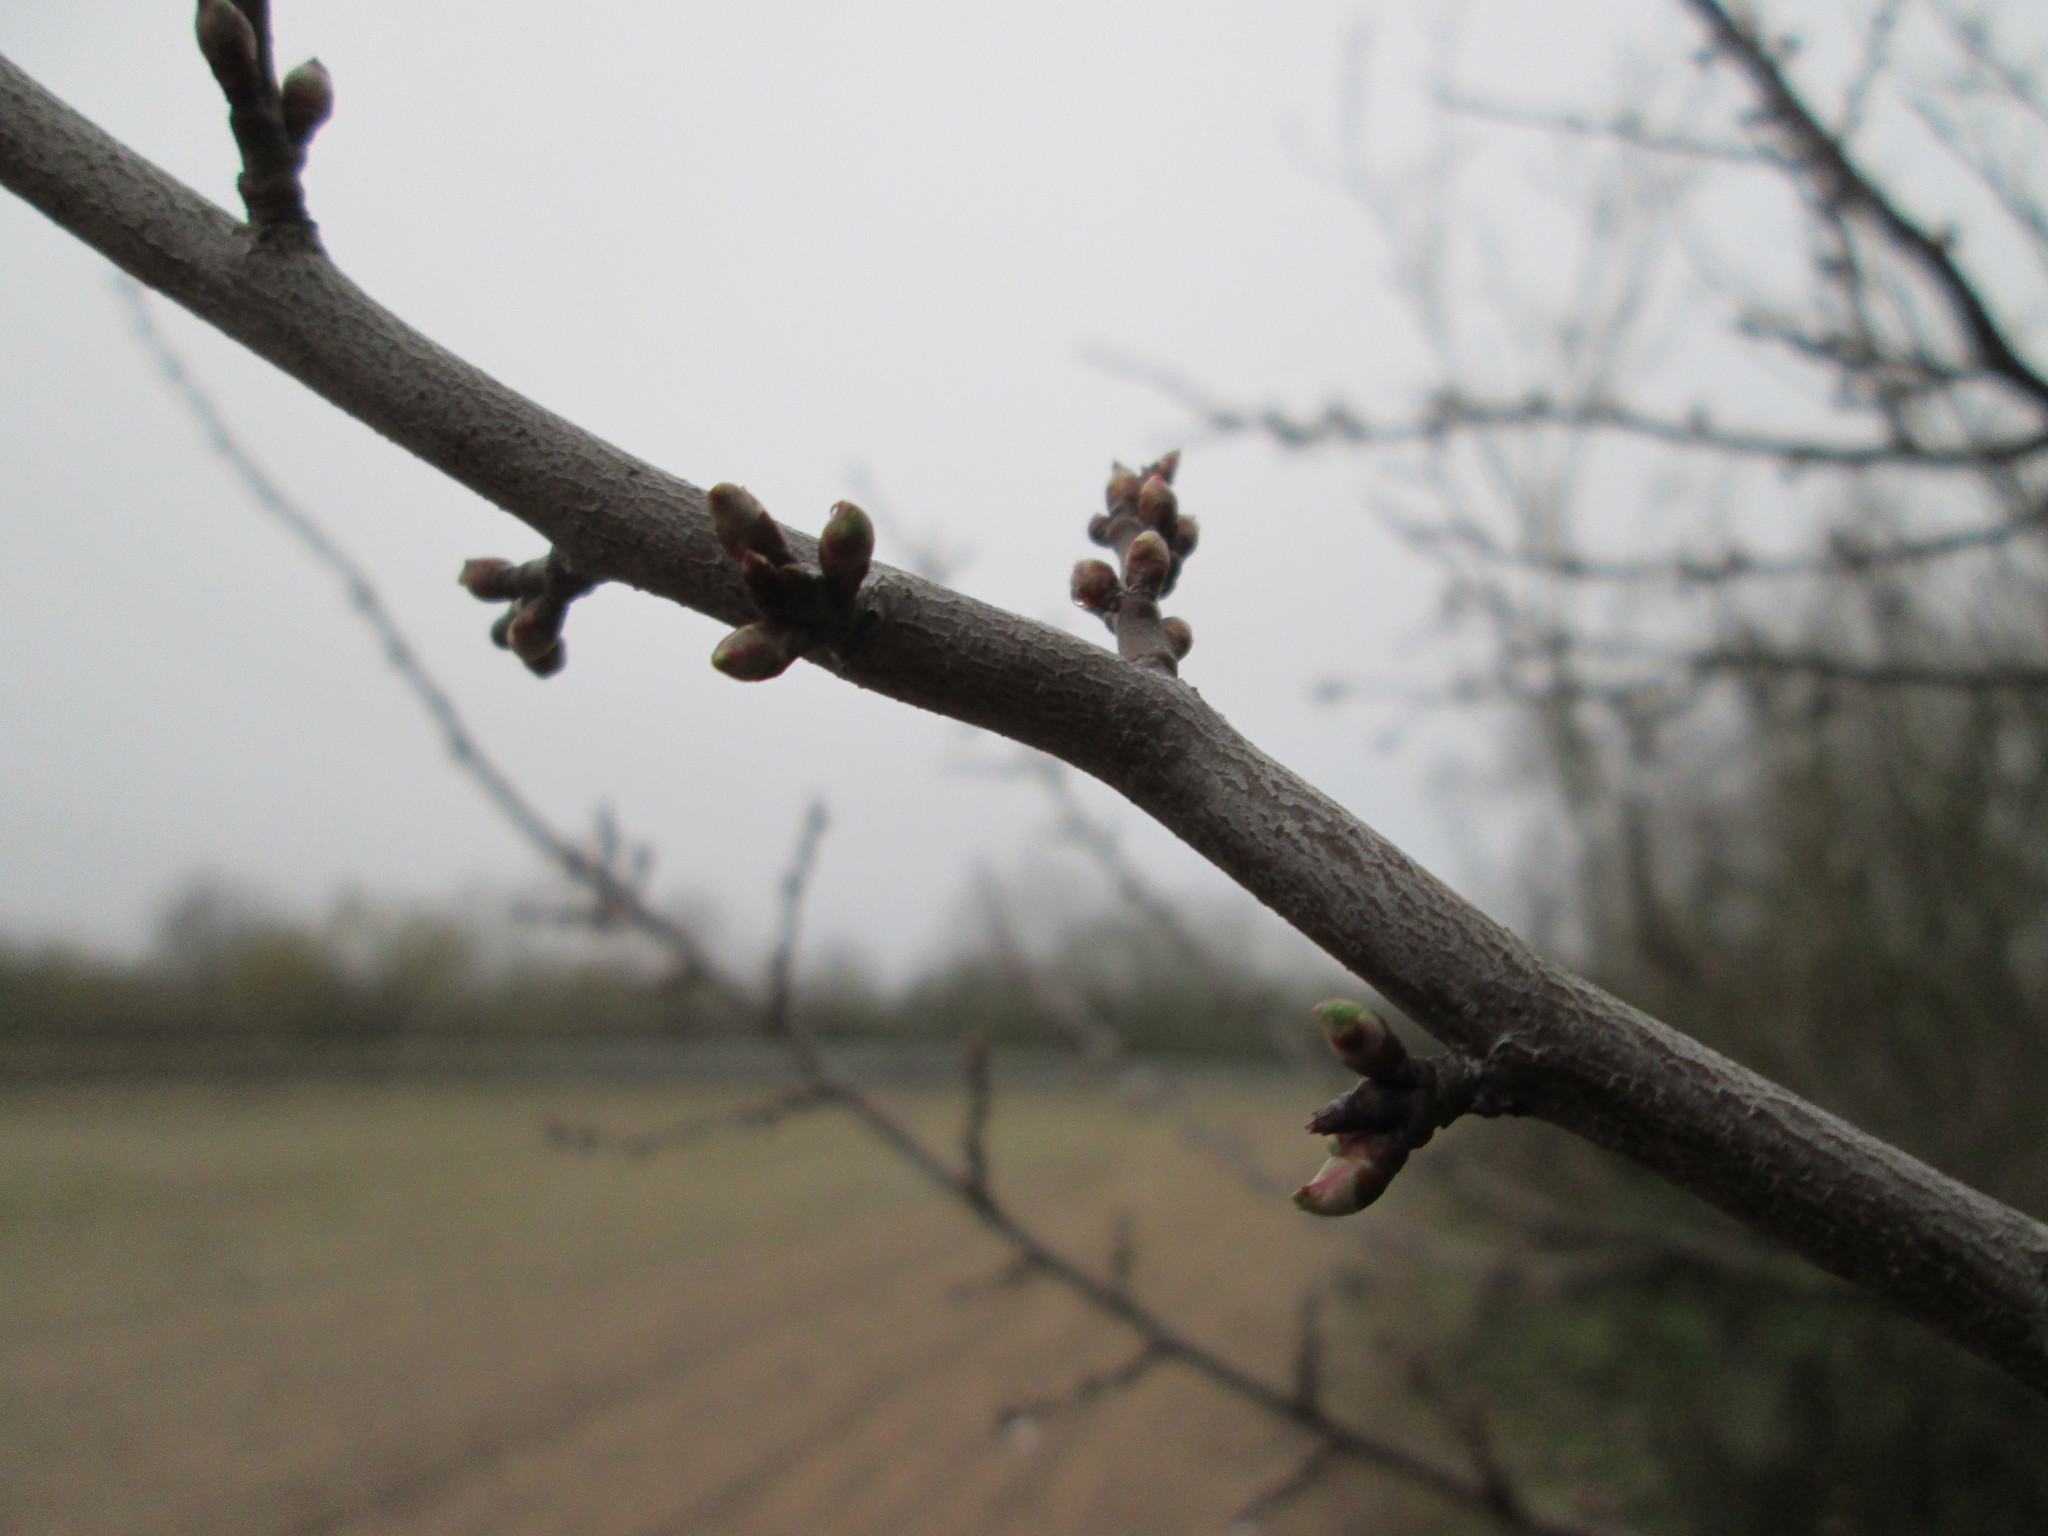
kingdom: Plantae
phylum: Tracheophyta
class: Magnoliopsida
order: Rosales
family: Rosaceae
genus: Prunus
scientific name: Prunus cerasifera
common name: Cherry plum
